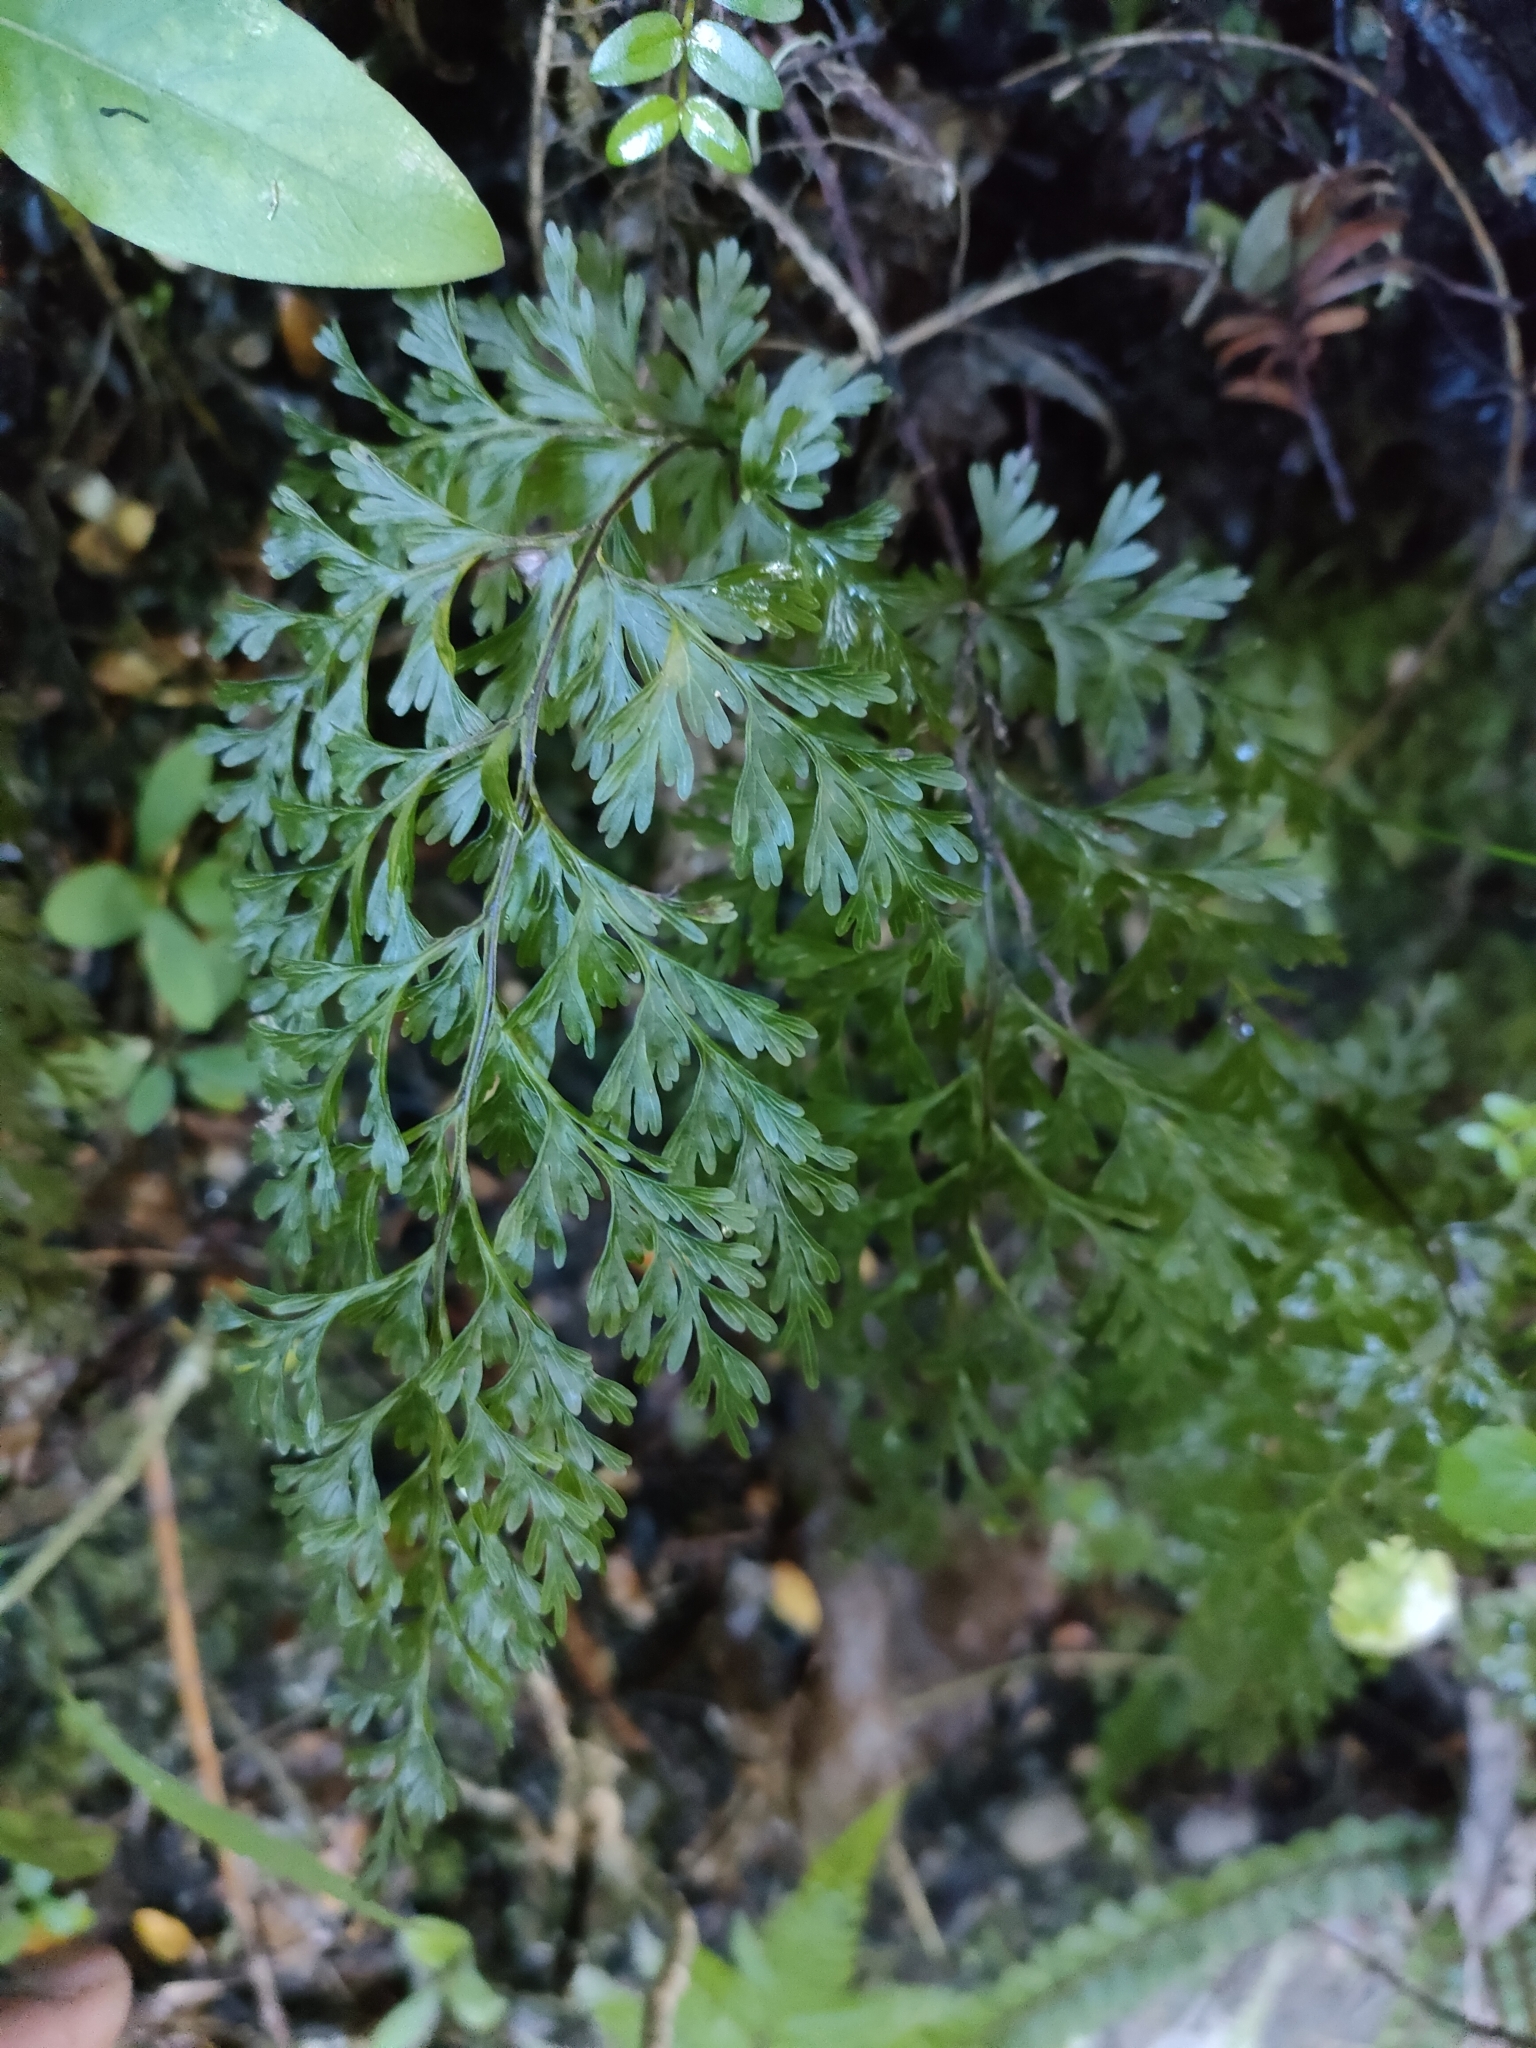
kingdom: Plantae
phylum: Tracheophyta
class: Polypodiopsida
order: Hymenophyllales
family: Hymenophyllaceae
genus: Hymenophyllum
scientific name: Hymenophyllum demissum
